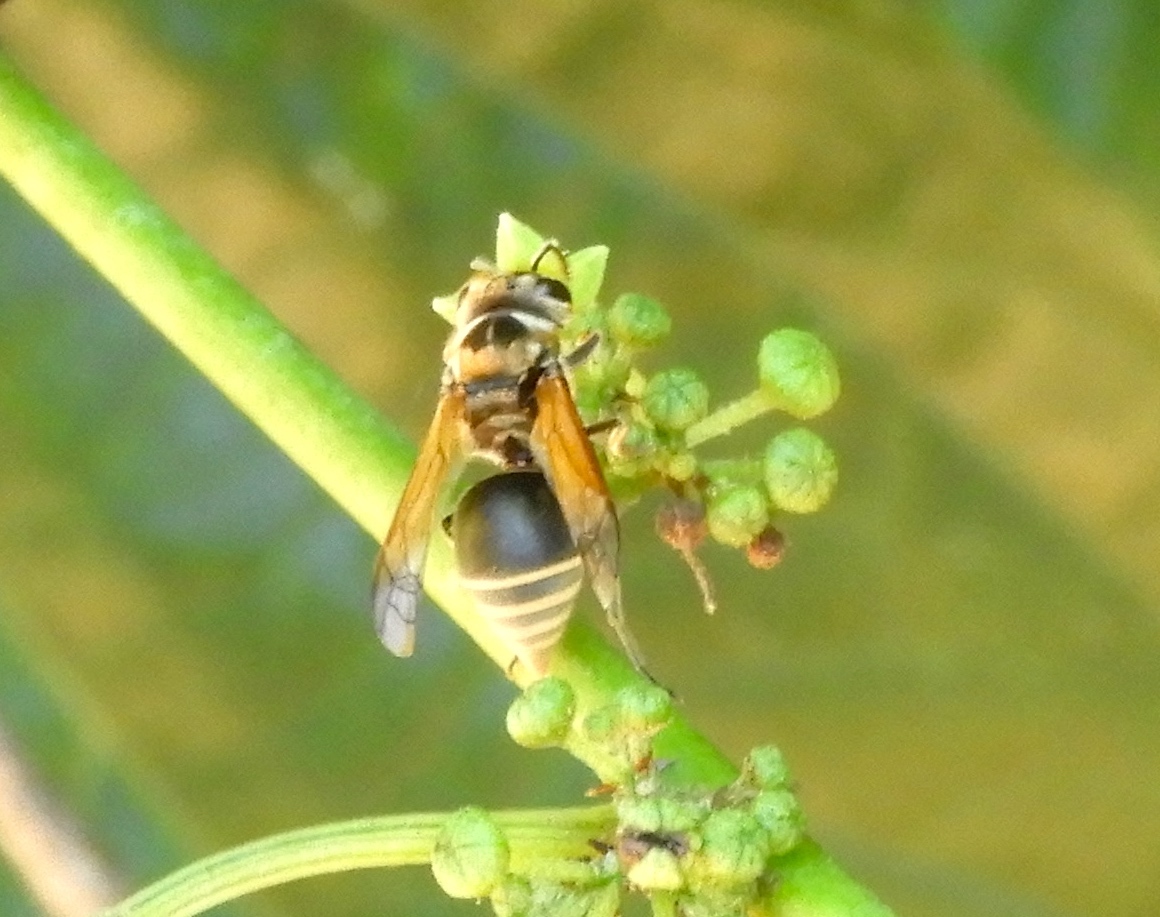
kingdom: Animalia
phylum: Arthropoda
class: Insecta
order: Hymenoptera
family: Vespidae
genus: Brachygastra
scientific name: Brachygastra mellifica
